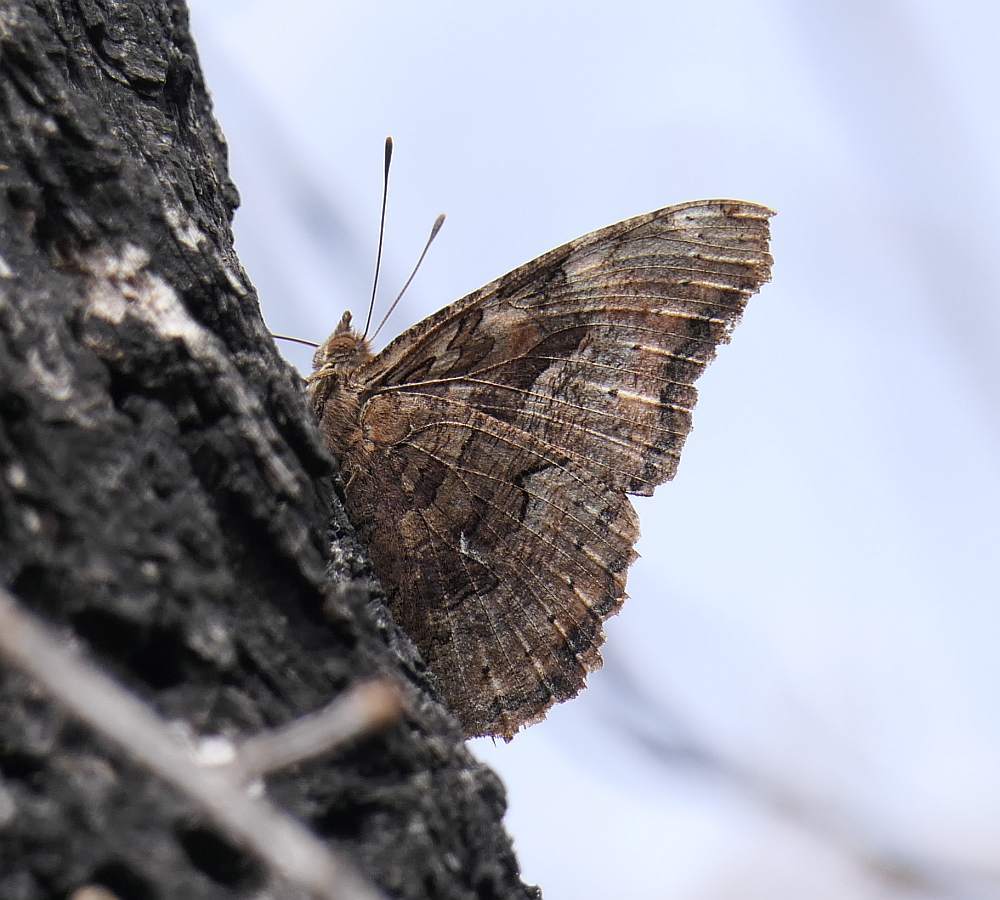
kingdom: Animalia
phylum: Arthropoda
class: Insecta
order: Lepidoptera
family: Nymphalidae
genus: Polygonia
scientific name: Polygonia vaualbum
